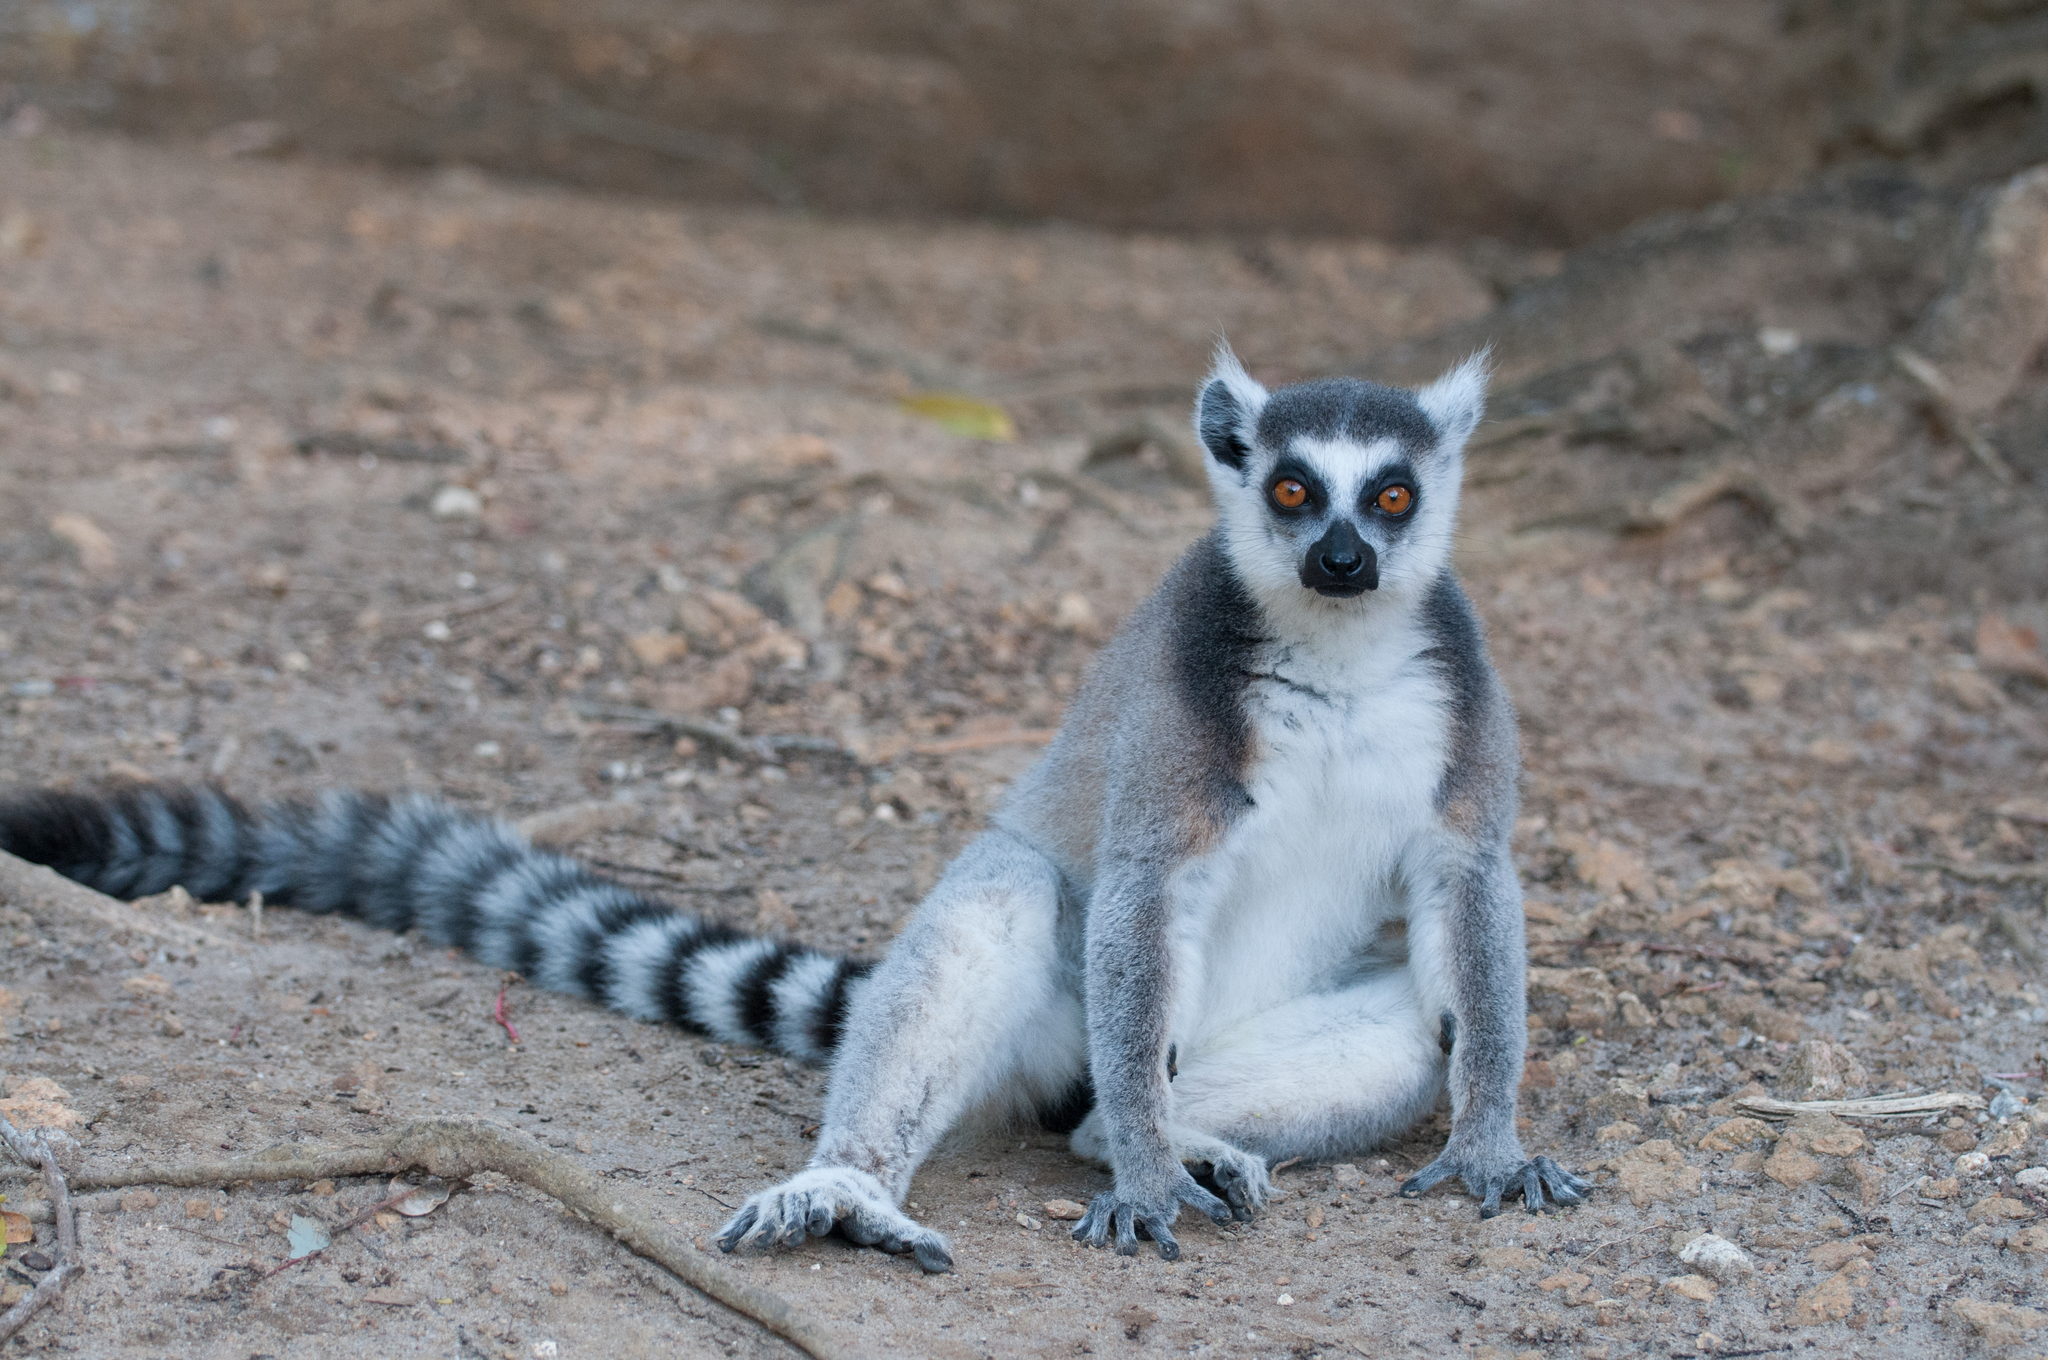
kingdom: Animalia
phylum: Chordata
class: Mammalia
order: Primates
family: Lemuridae
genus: Lemur
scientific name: Lemur catta
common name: Ring-tailed lemur
